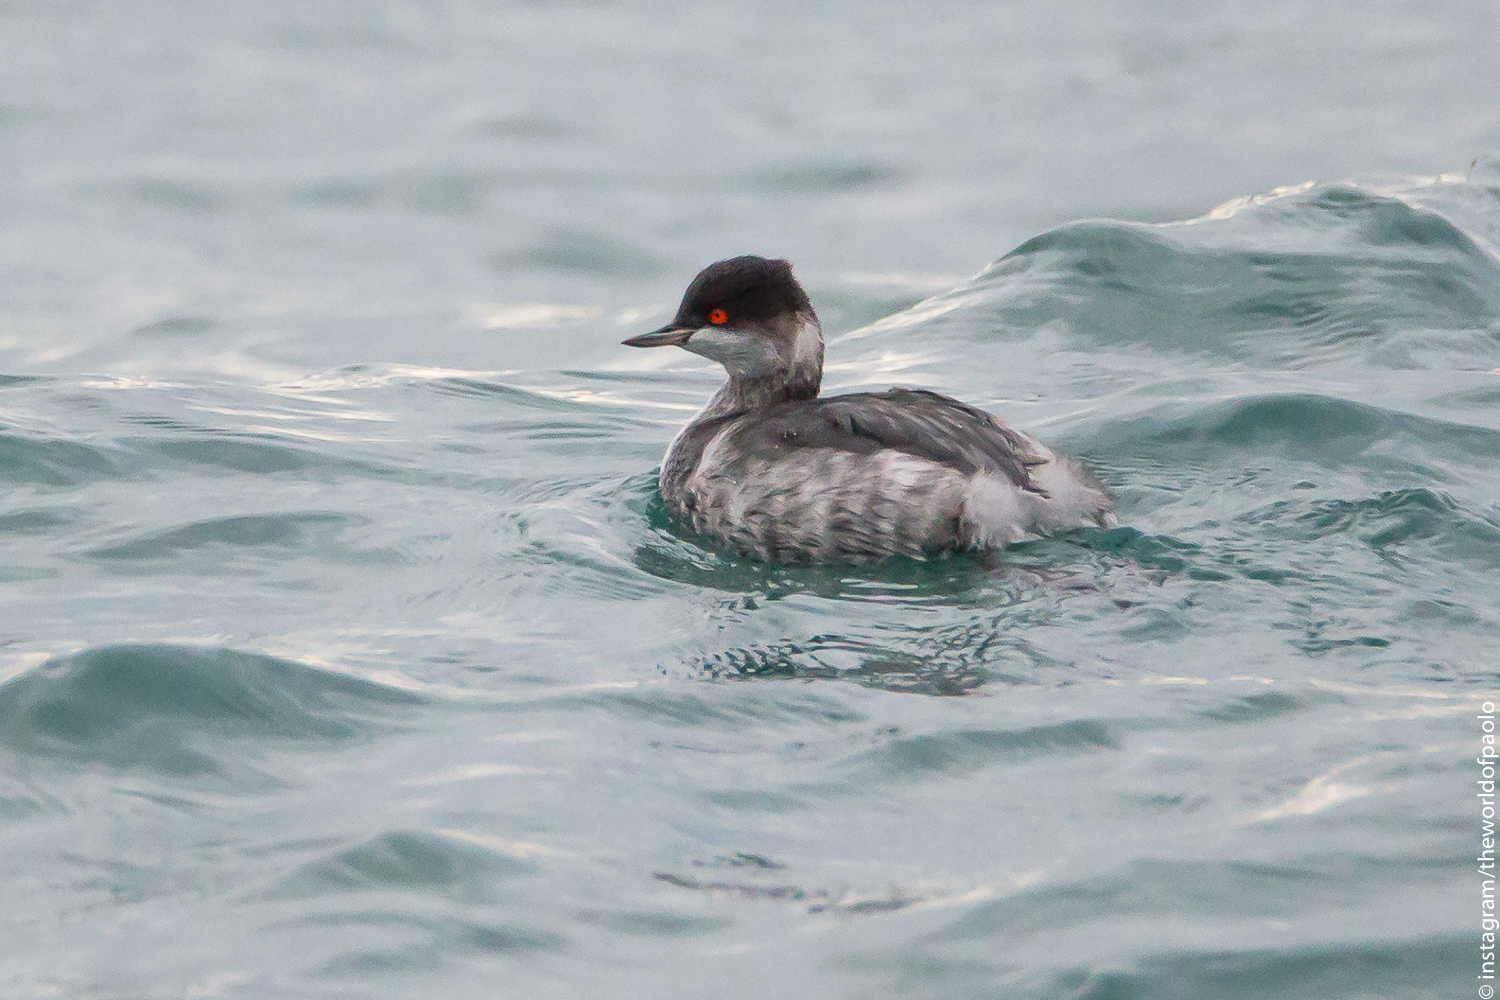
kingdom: Animalia
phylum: Chordata
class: Aves
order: Podicipediformes
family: Podicipedidae
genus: Podiceps
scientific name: Podiceps nigricollis
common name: Black-necked grebe
